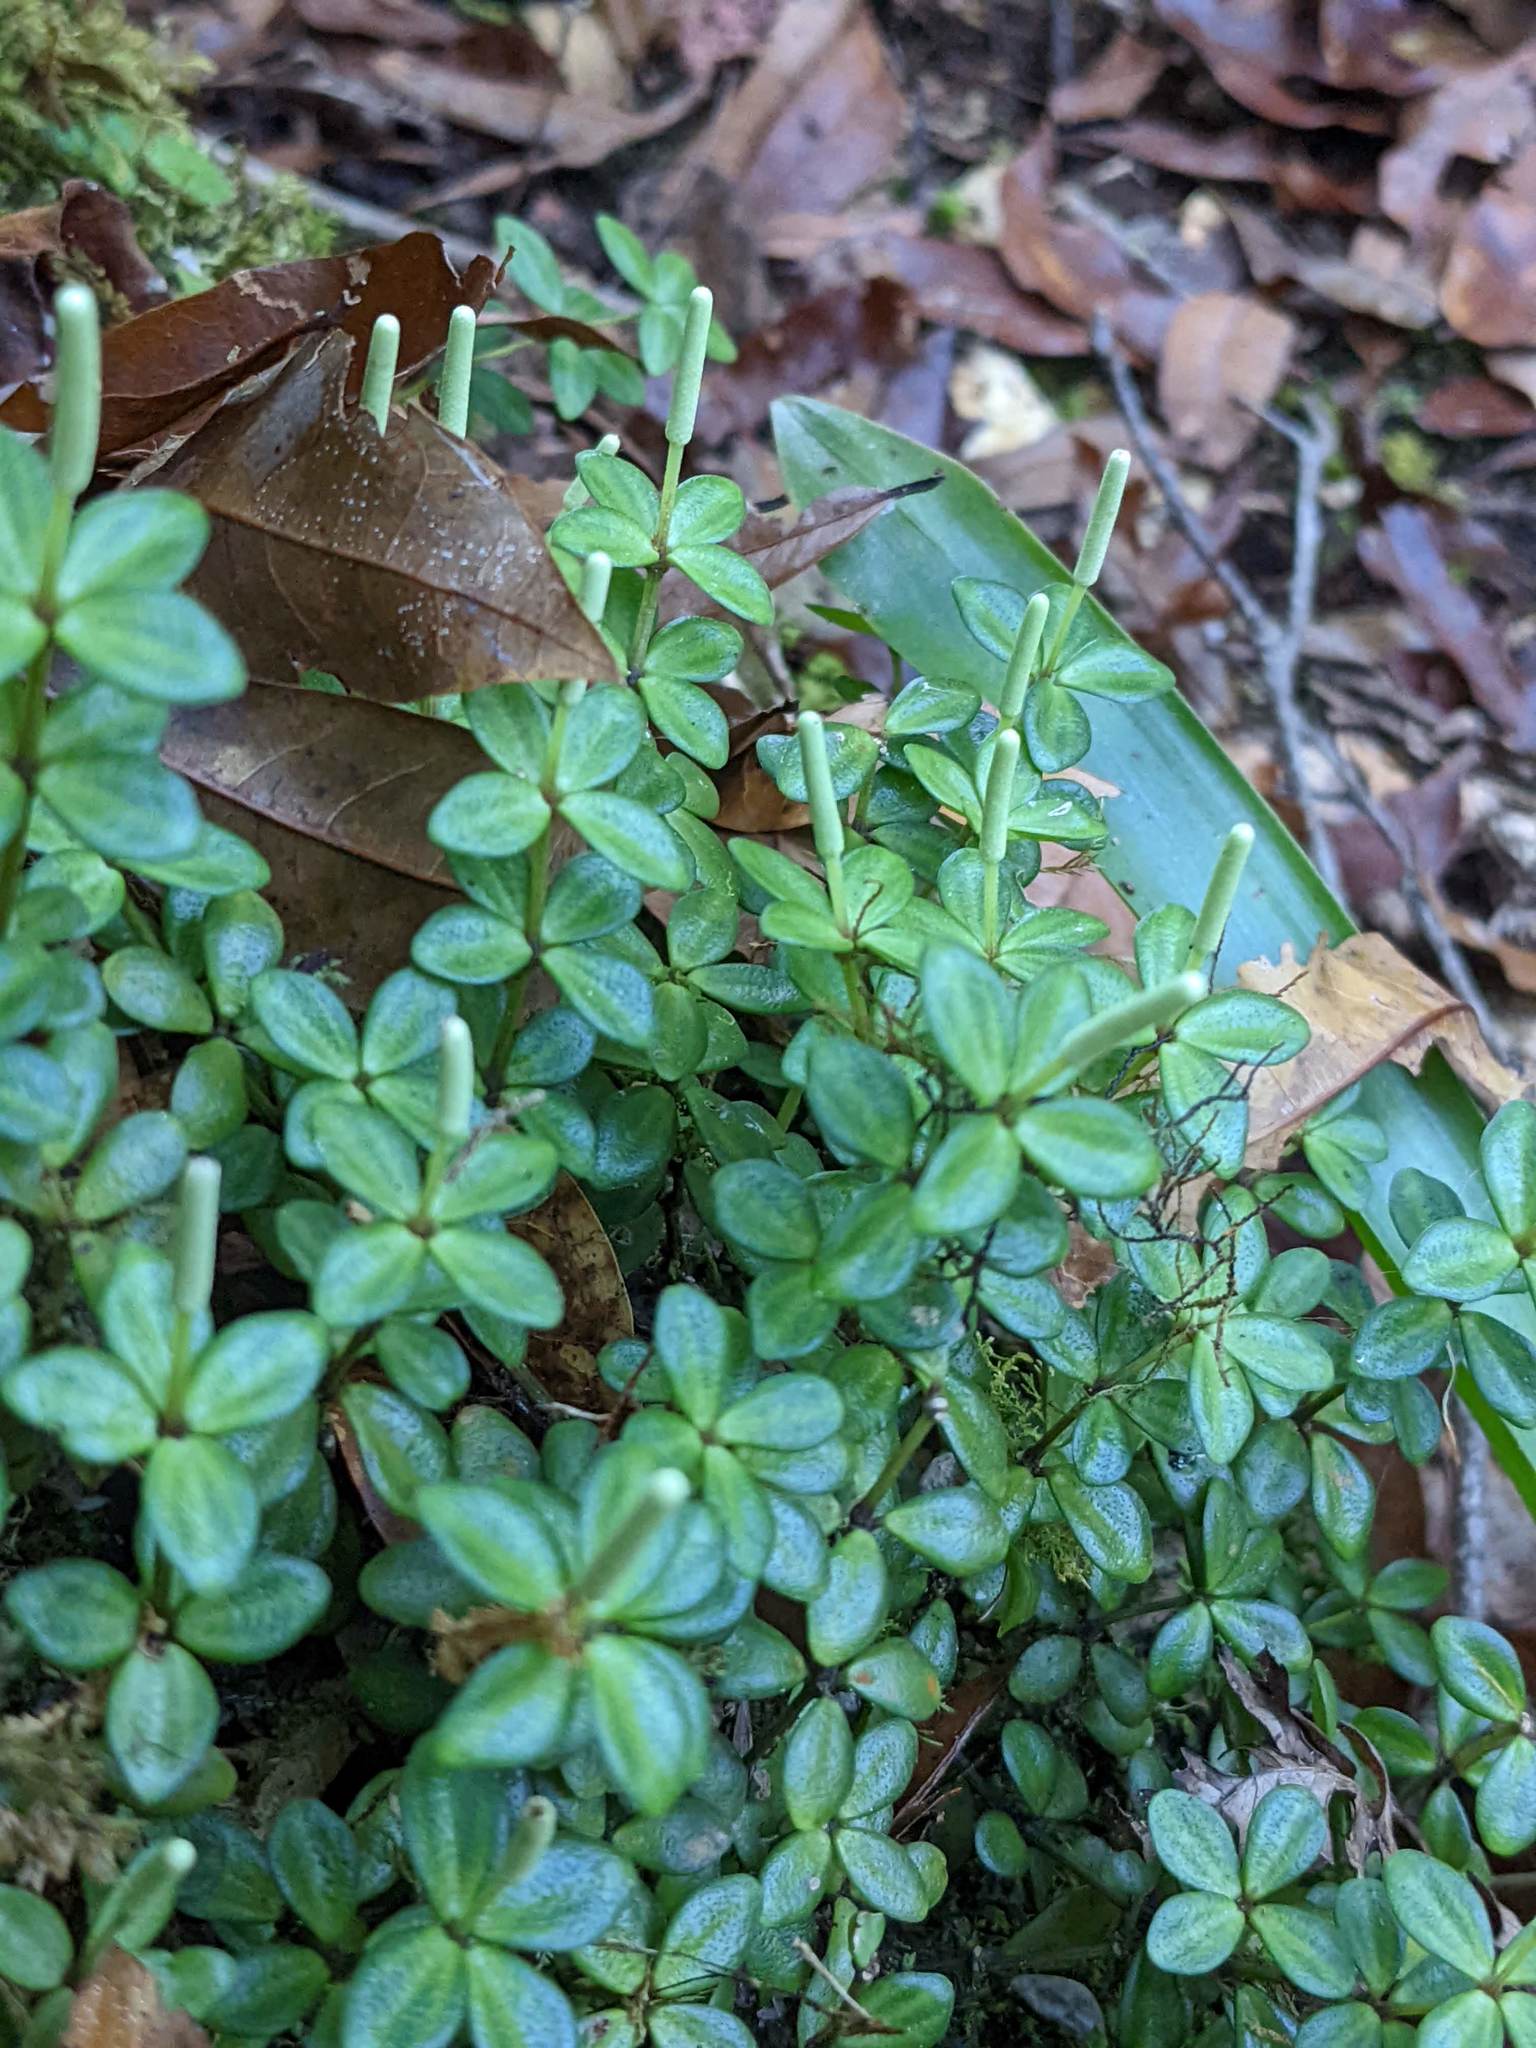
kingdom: Plantae
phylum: Tracheophyta
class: Magnoliopsida
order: Piperales
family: Piperaceae
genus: Peperomia
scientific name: Peperomia tetraphylla
